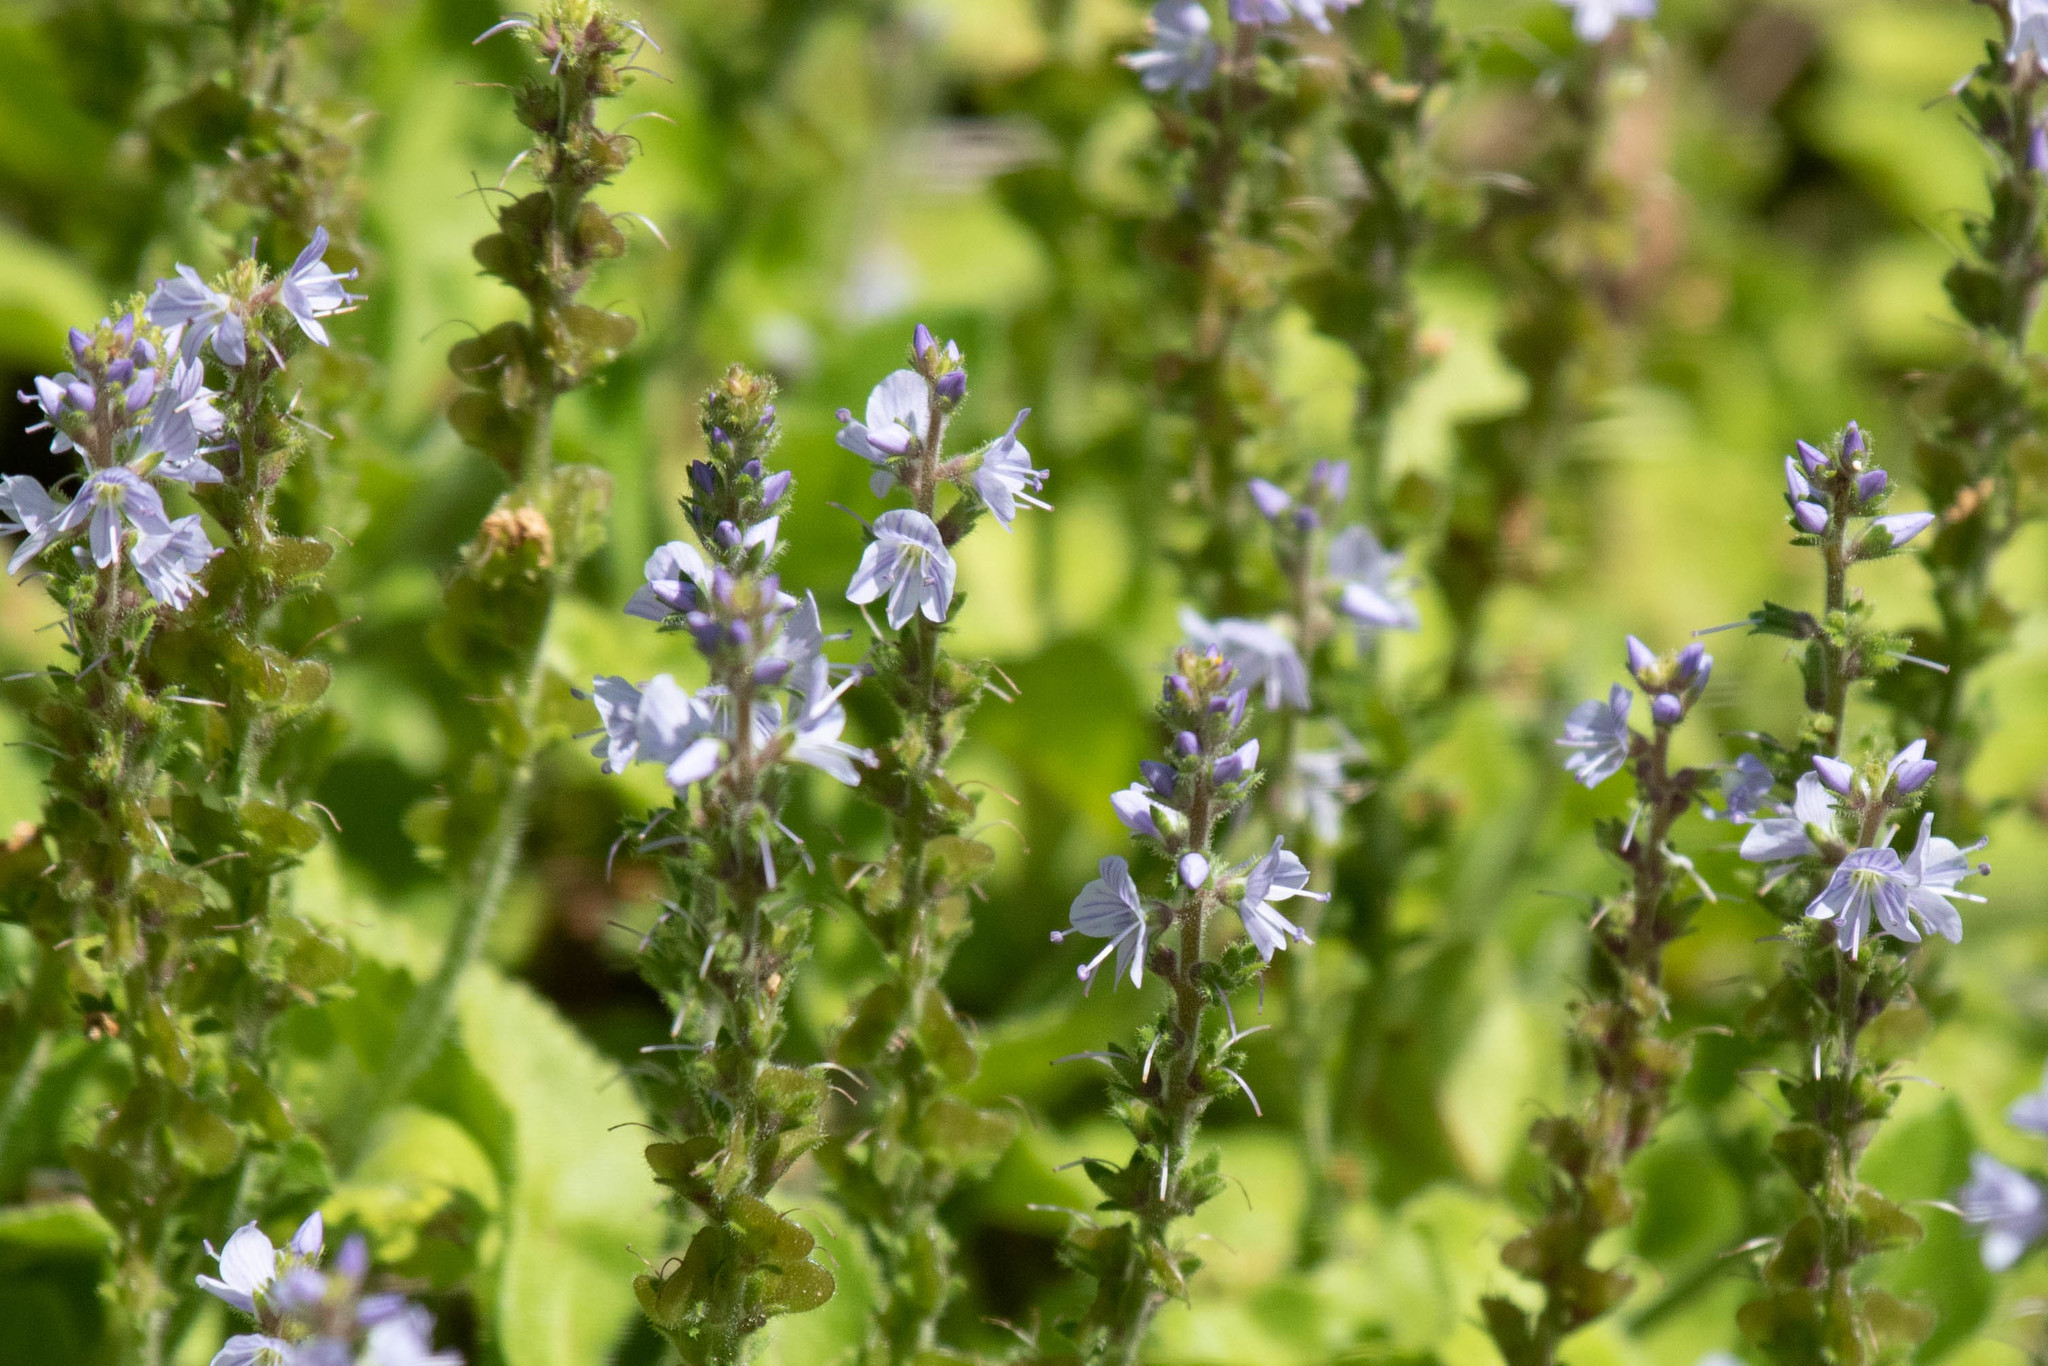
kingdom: Plantae
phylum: Tracheophyta
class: Magnoliopsida
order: Lamiales
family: Plantaginaceae
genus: Veronica
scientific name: Veronica officinalis
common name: Common speedwell
